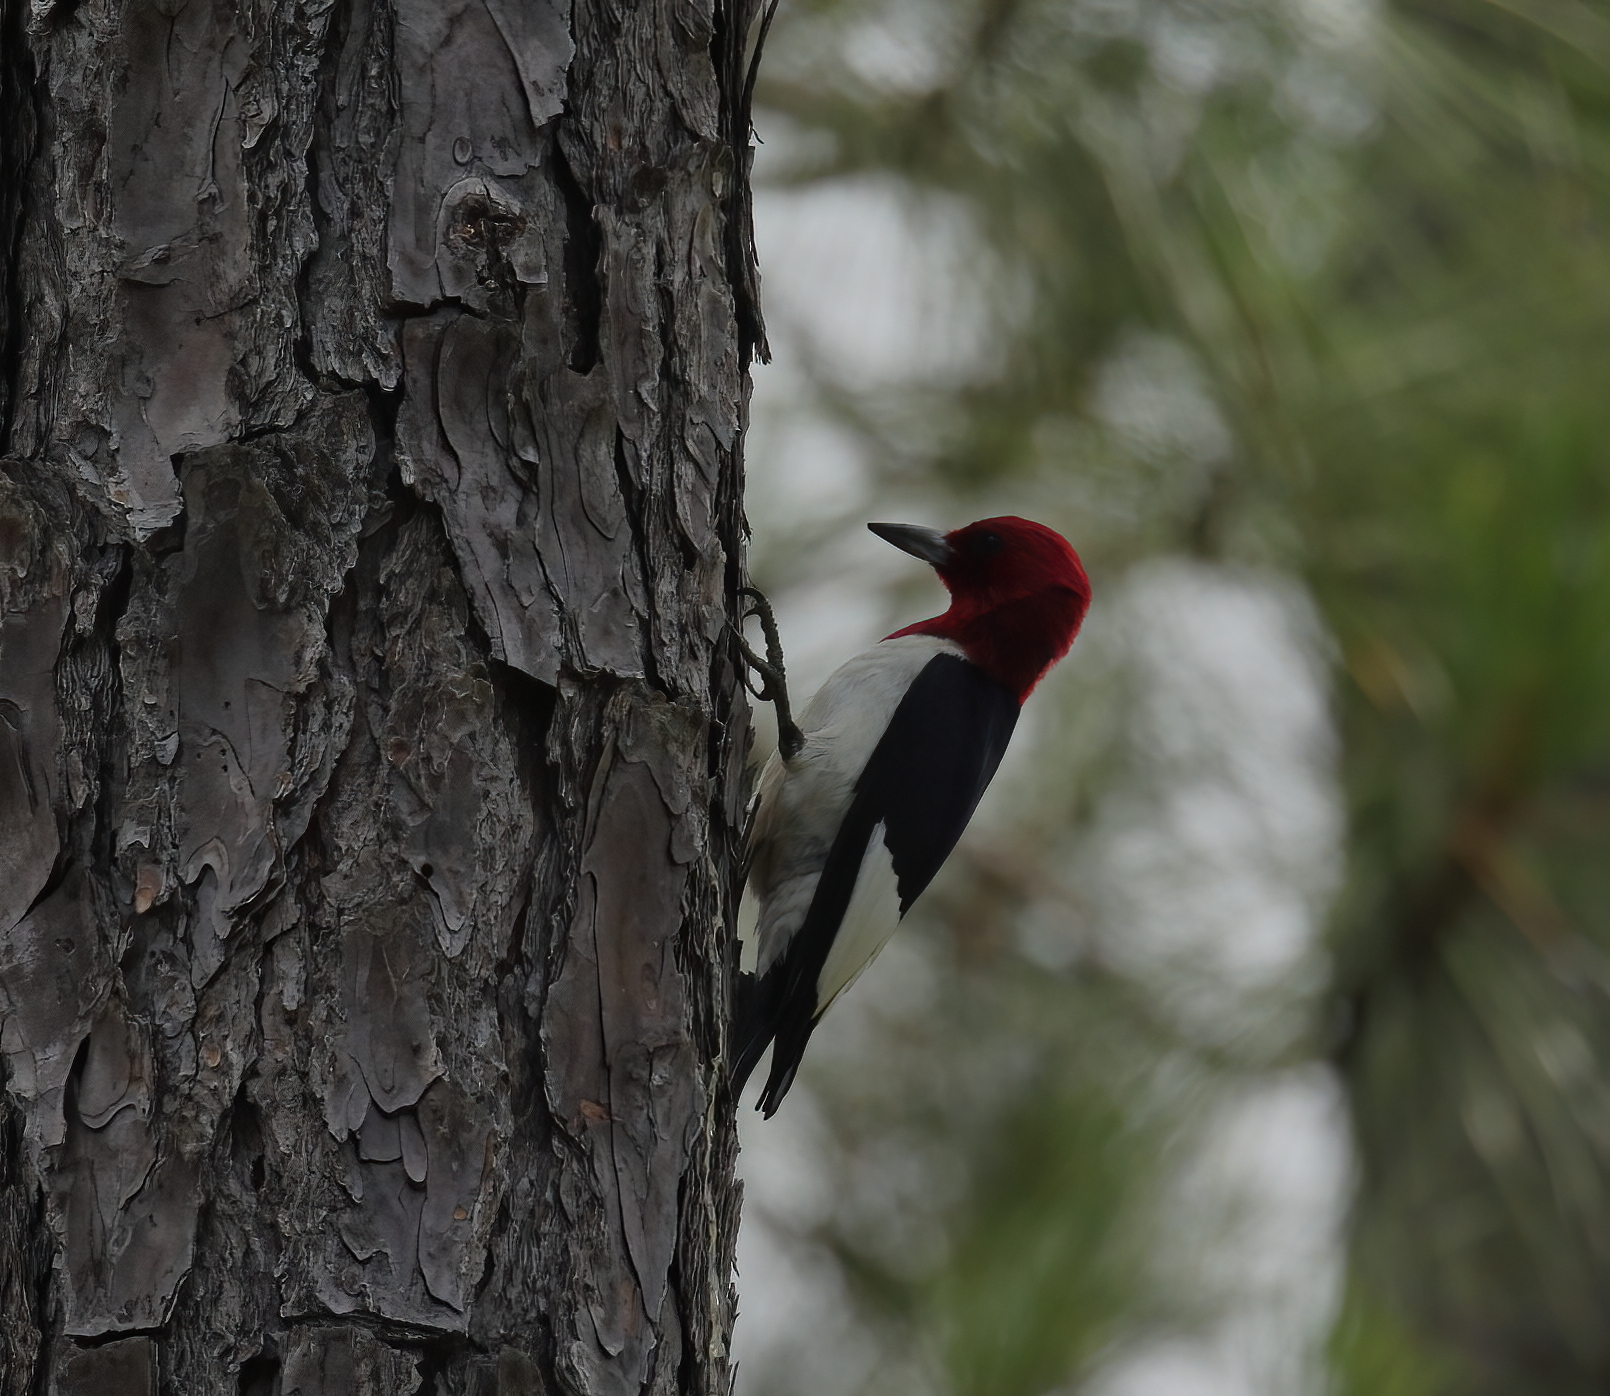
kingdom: Animalia
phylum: Chordata
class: Aves
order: Piciformes
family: Picidae
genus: Melanerpes
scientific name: Melanerpes erythrocephalus
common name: Red-headed woodpecker
